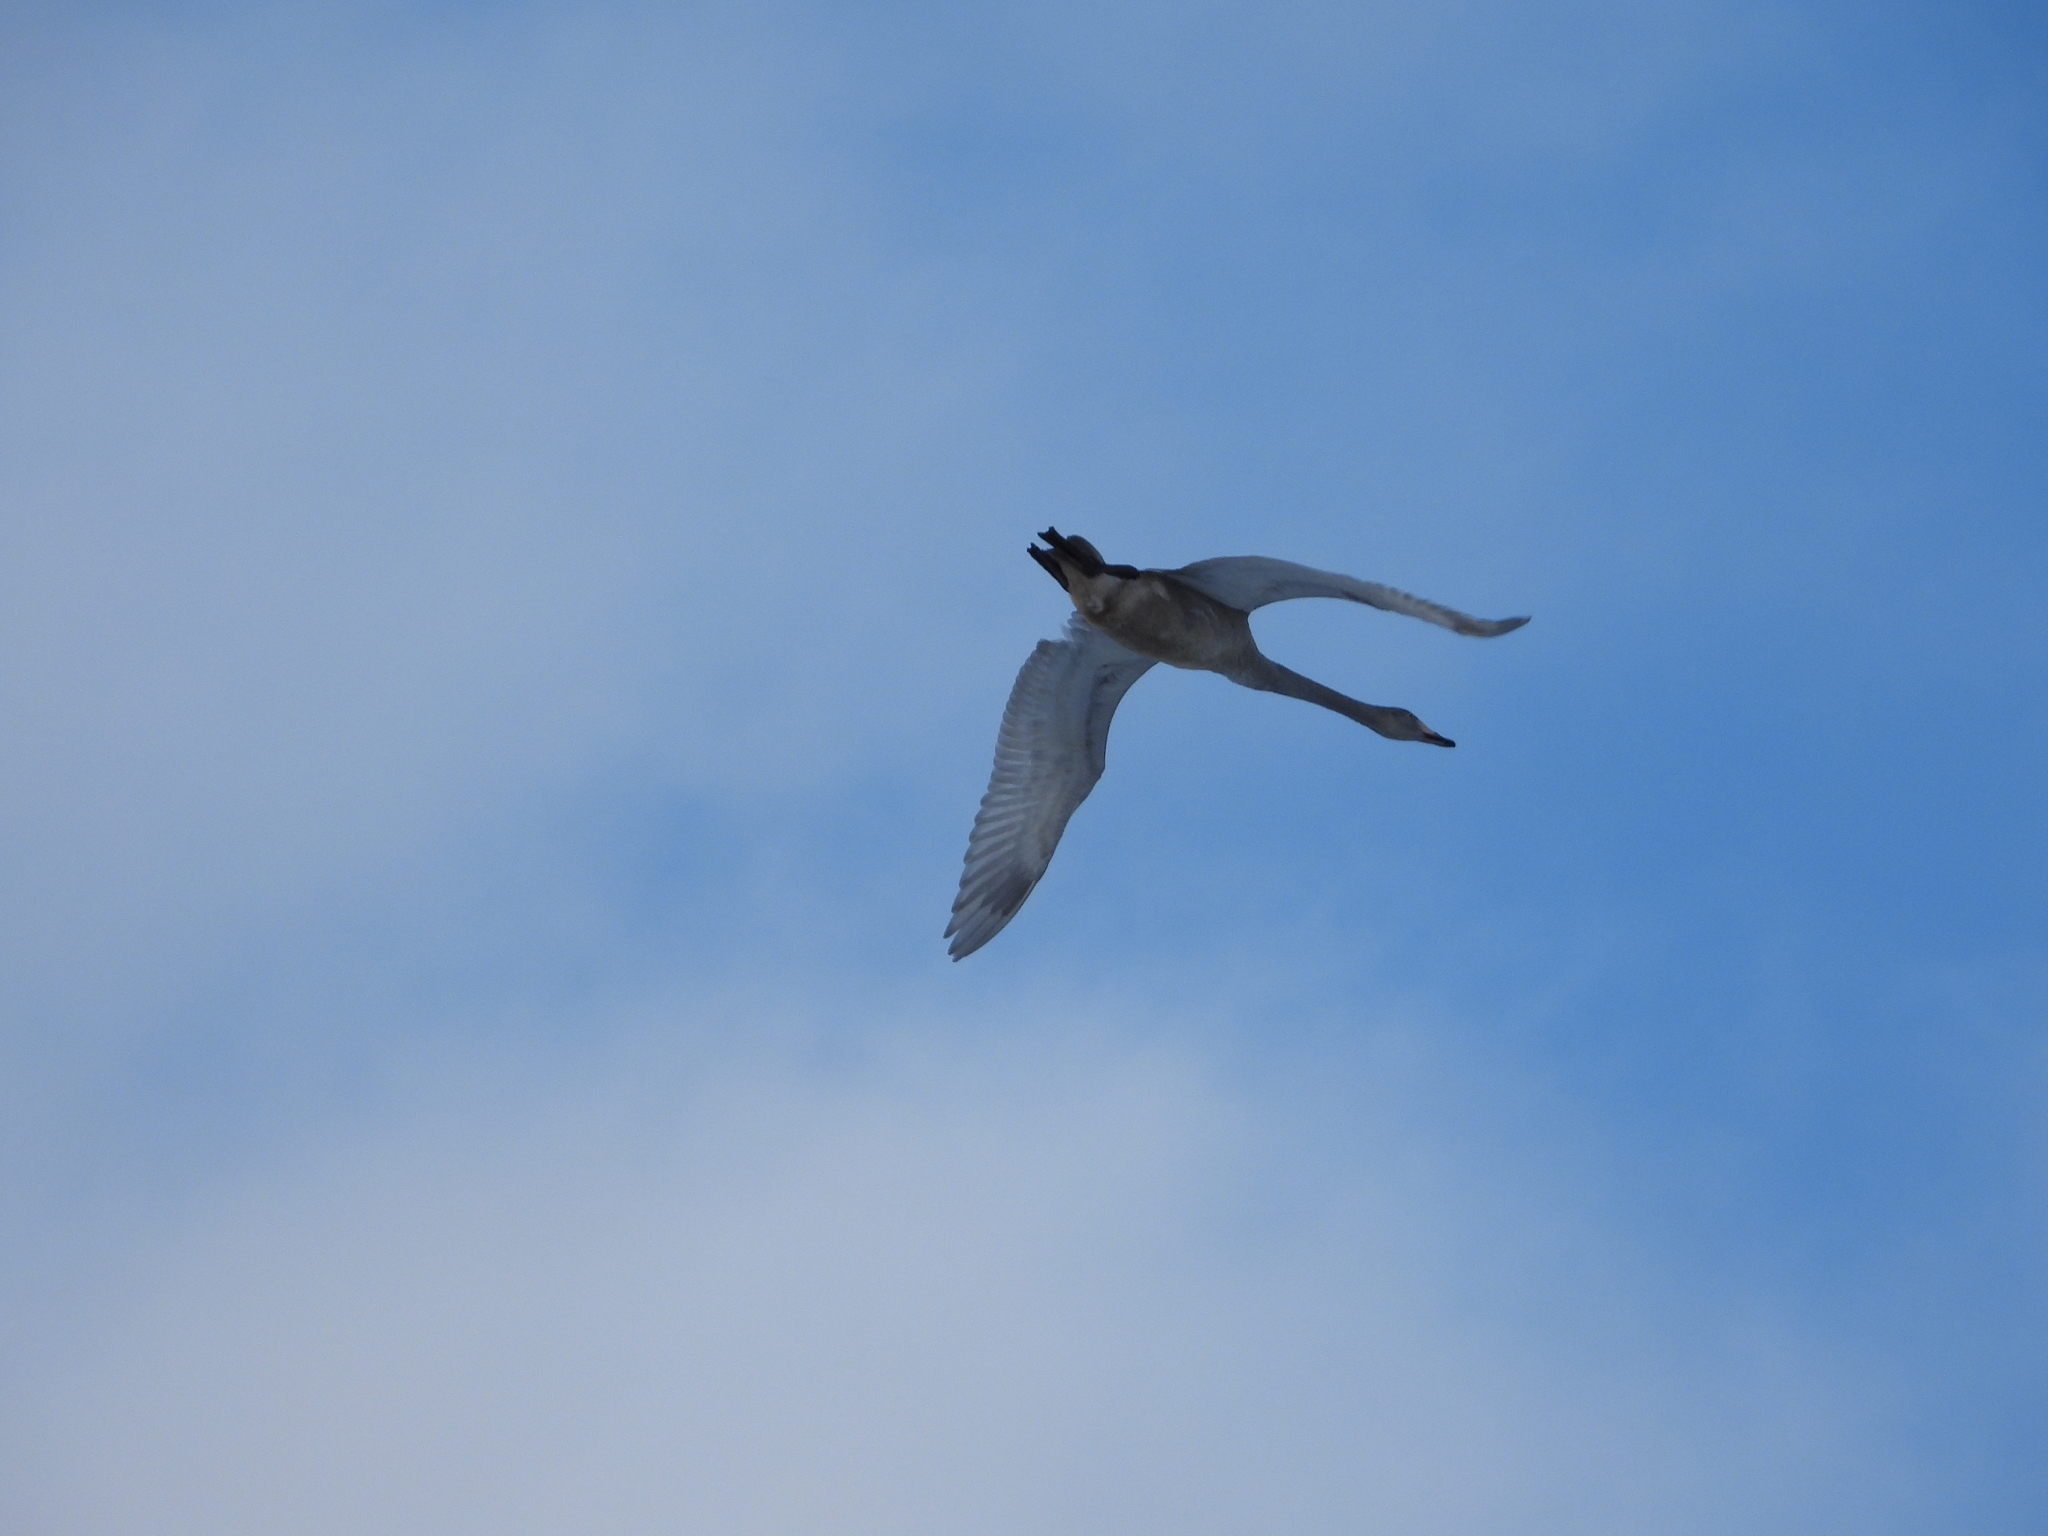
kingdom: Animalia
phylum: Chordata
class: Aves
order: Anseriformes
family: Anatidae
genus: Cygnus
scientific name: Cygnus cygnus
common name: Whooper swan
